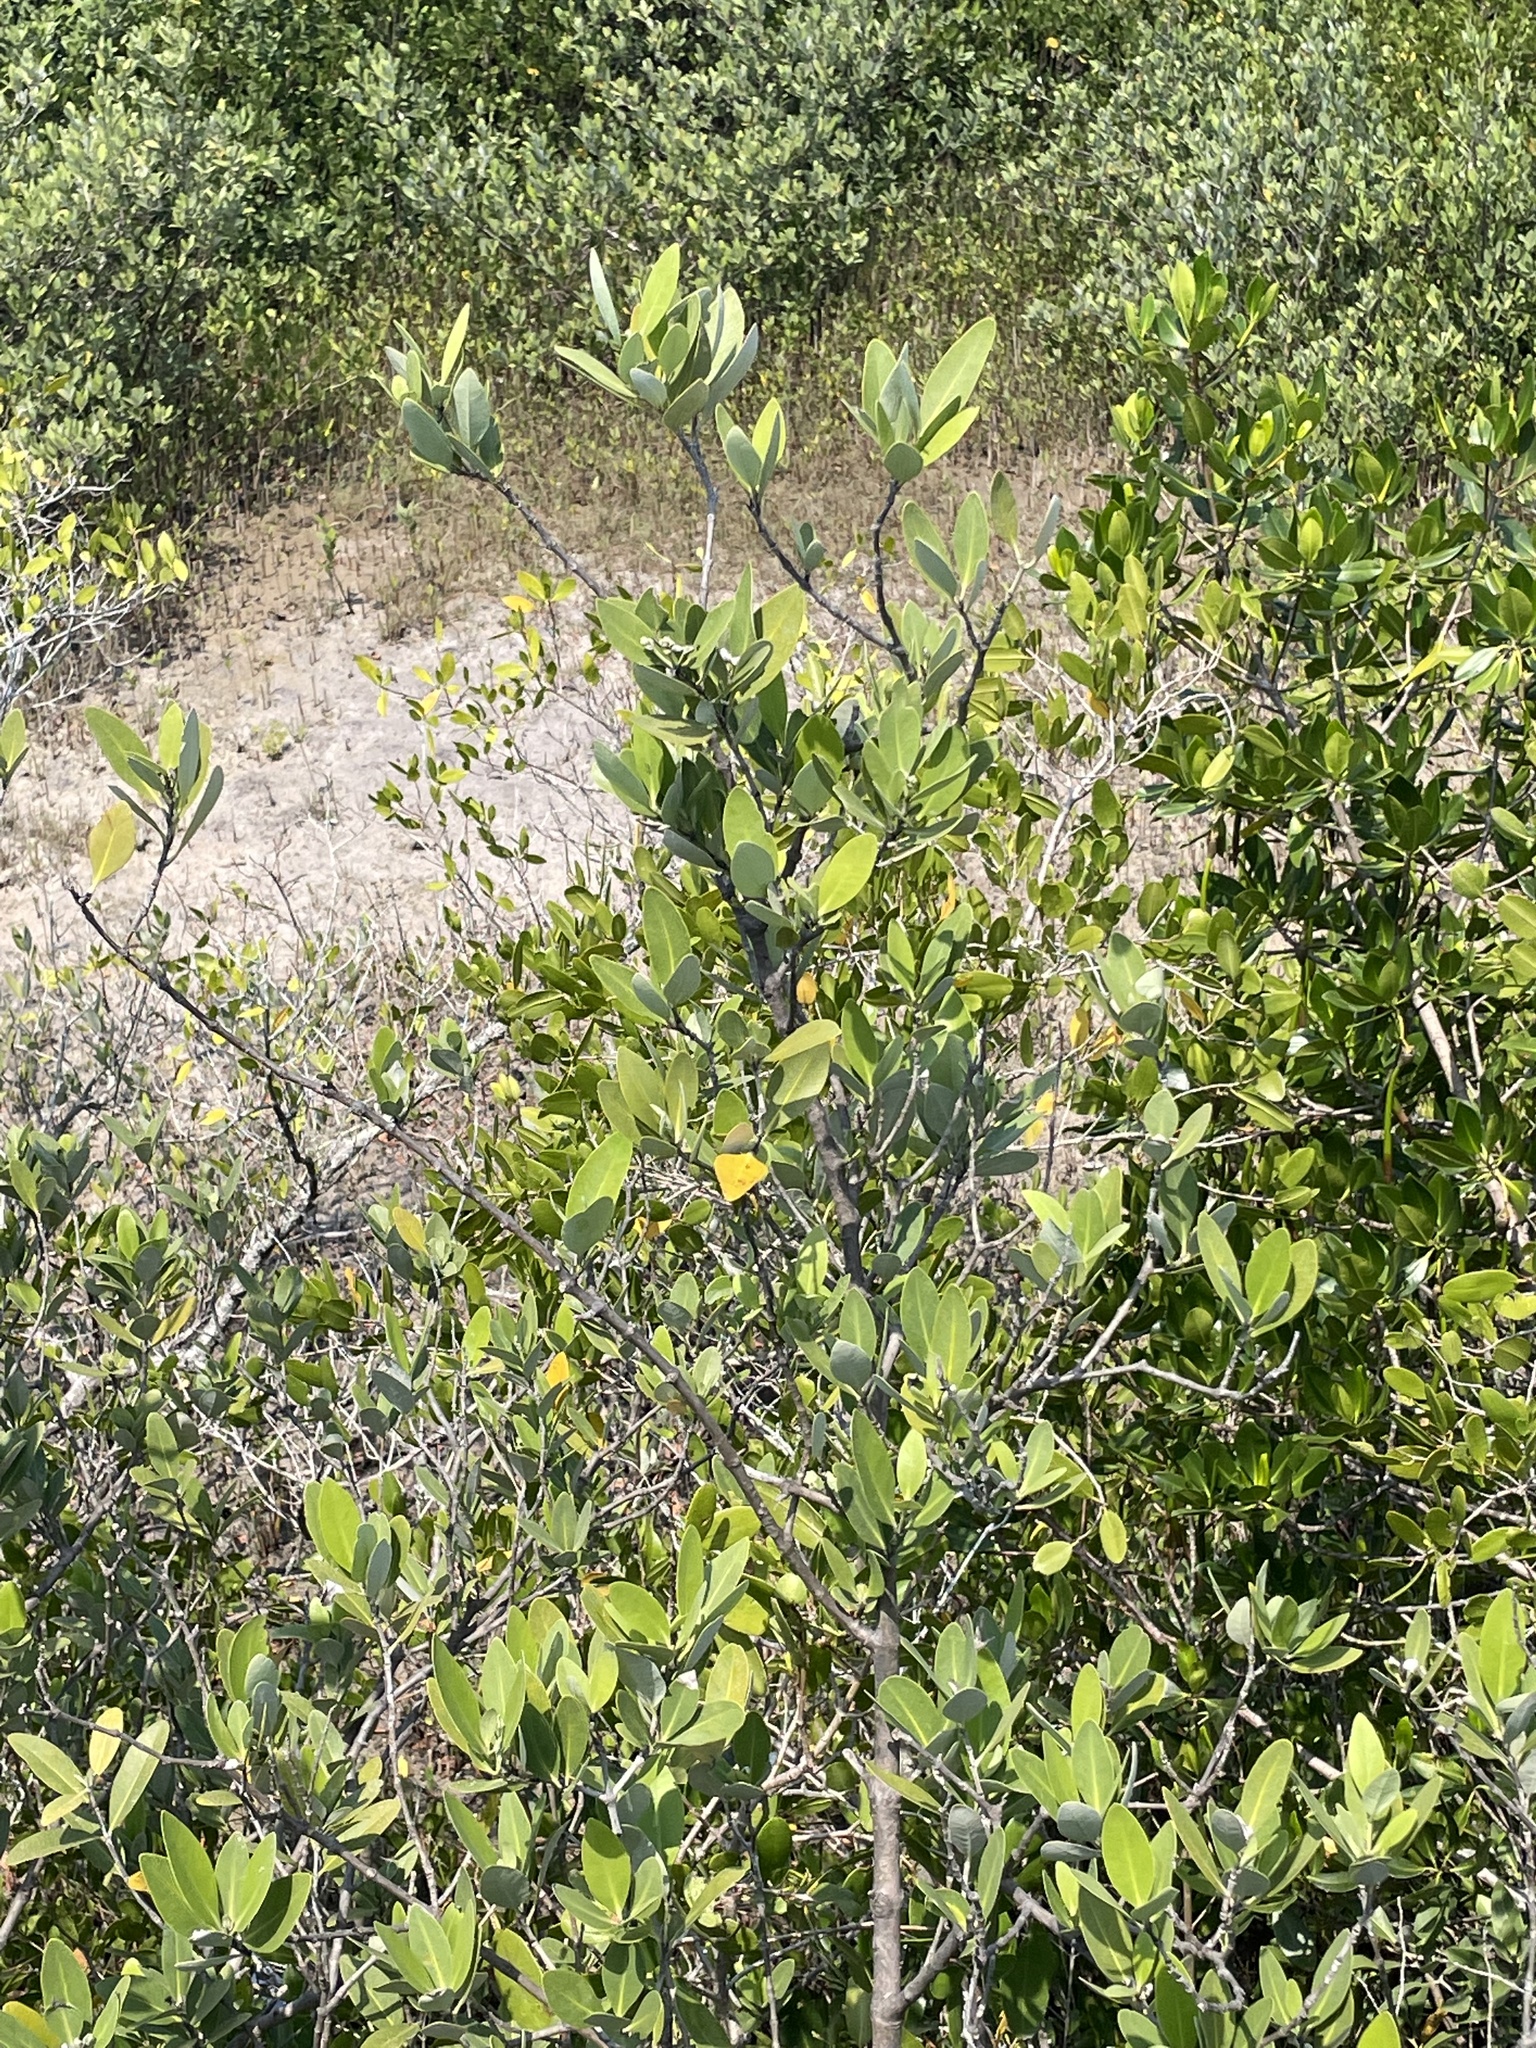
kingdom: Plantae
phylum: Tracheophyta
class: Magnoliopsida
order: Malpighiales
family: Rhizophoraceae
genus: Rhizophora
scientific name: Rhizophora mangle
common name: Red mangrove
